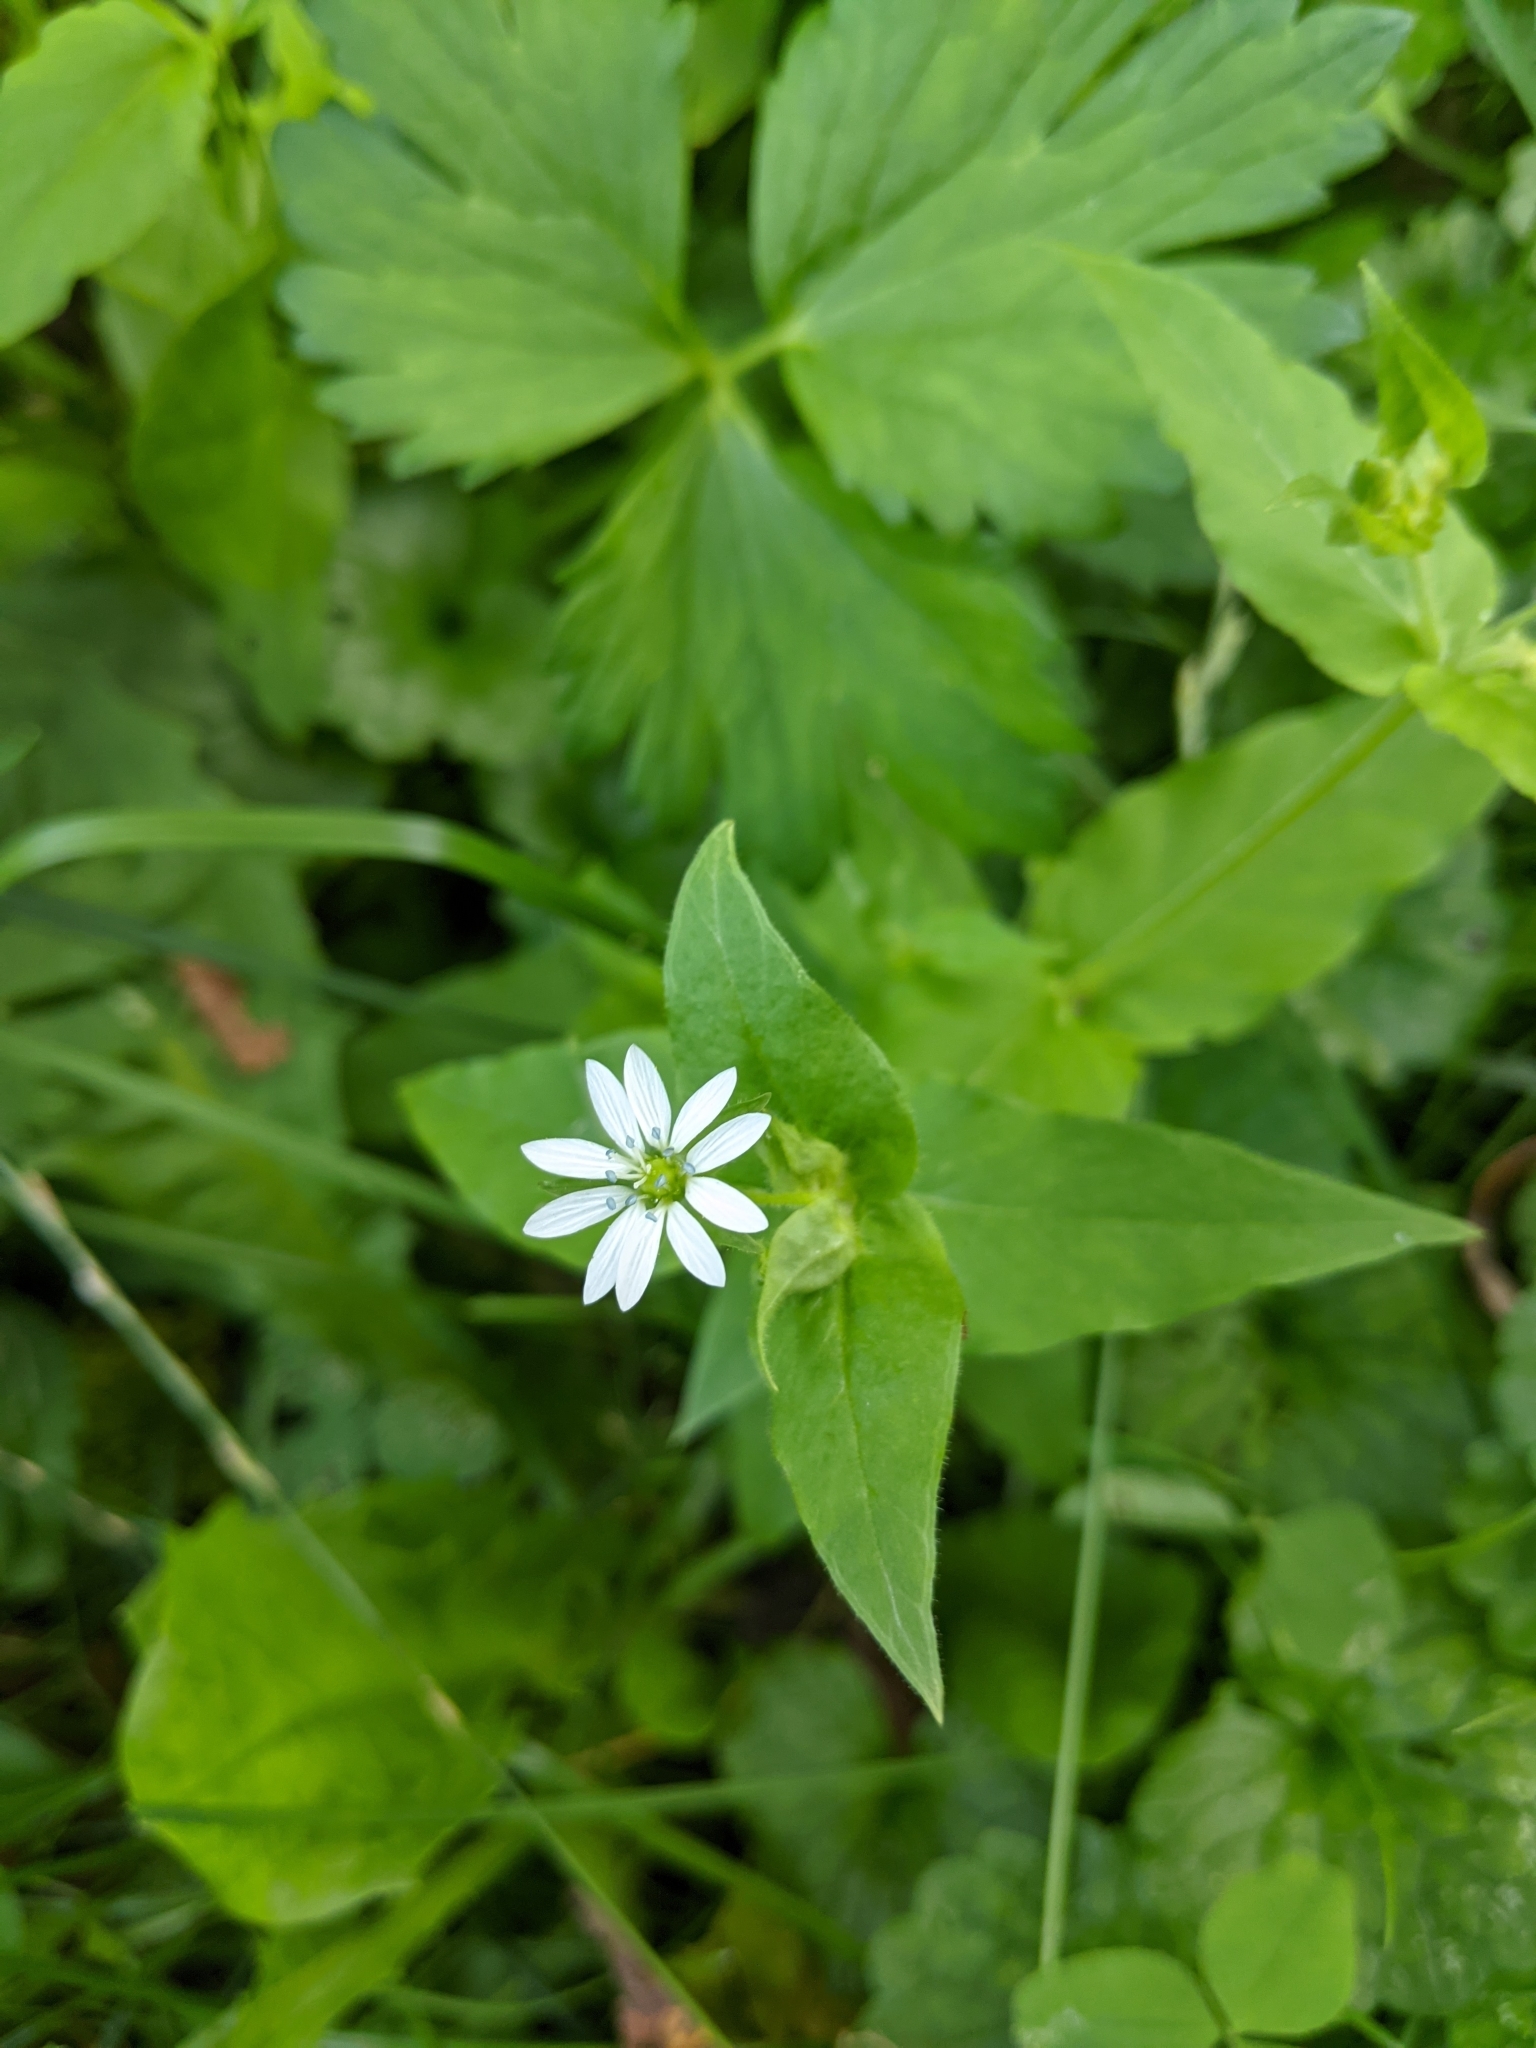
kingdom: Plantae
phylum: Tracheophyta
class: Magnoliopsida
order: Caryophyllales
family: Caryophyllaceae
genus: Stellaria
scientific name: Stellaria aquatica
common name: Water chickweed
